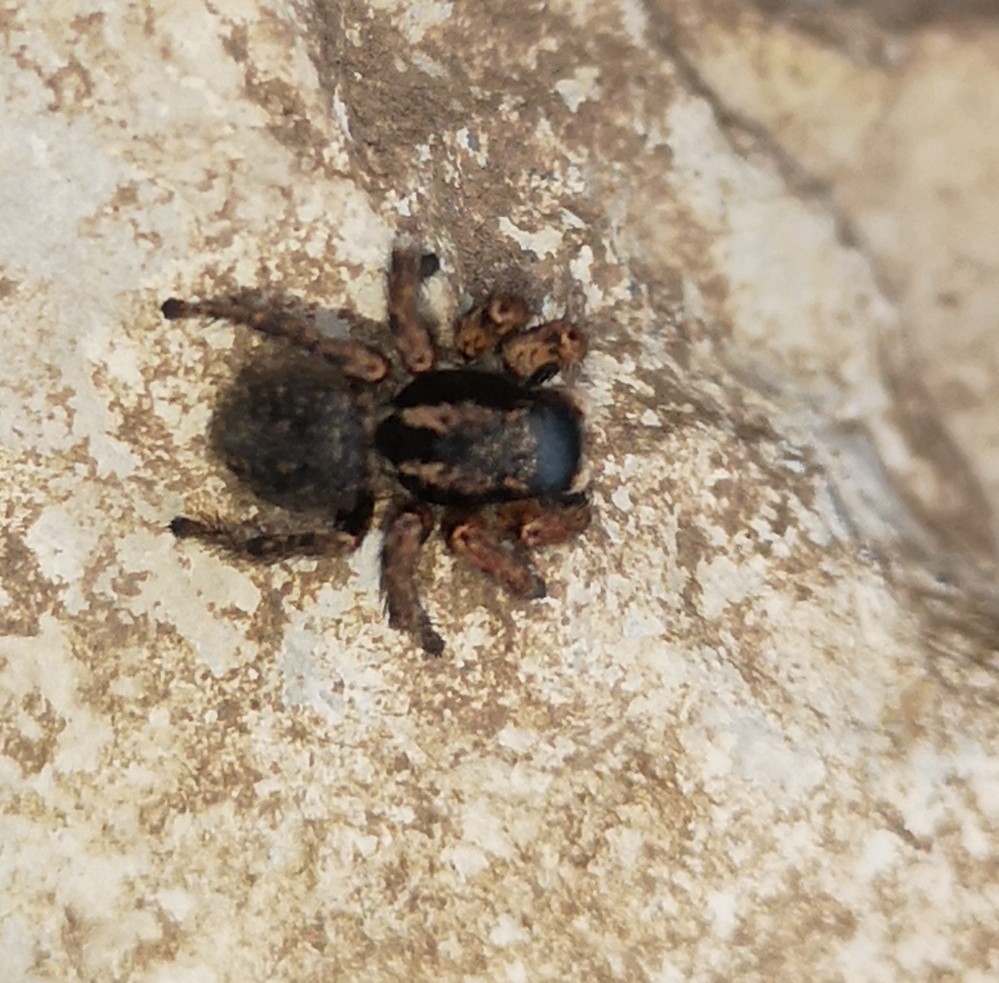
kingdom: Animalia
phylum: Arthropoda
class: Arachnida
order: Araneae
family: Salticidae
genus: Asianellus
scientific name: Asianellus festivus
